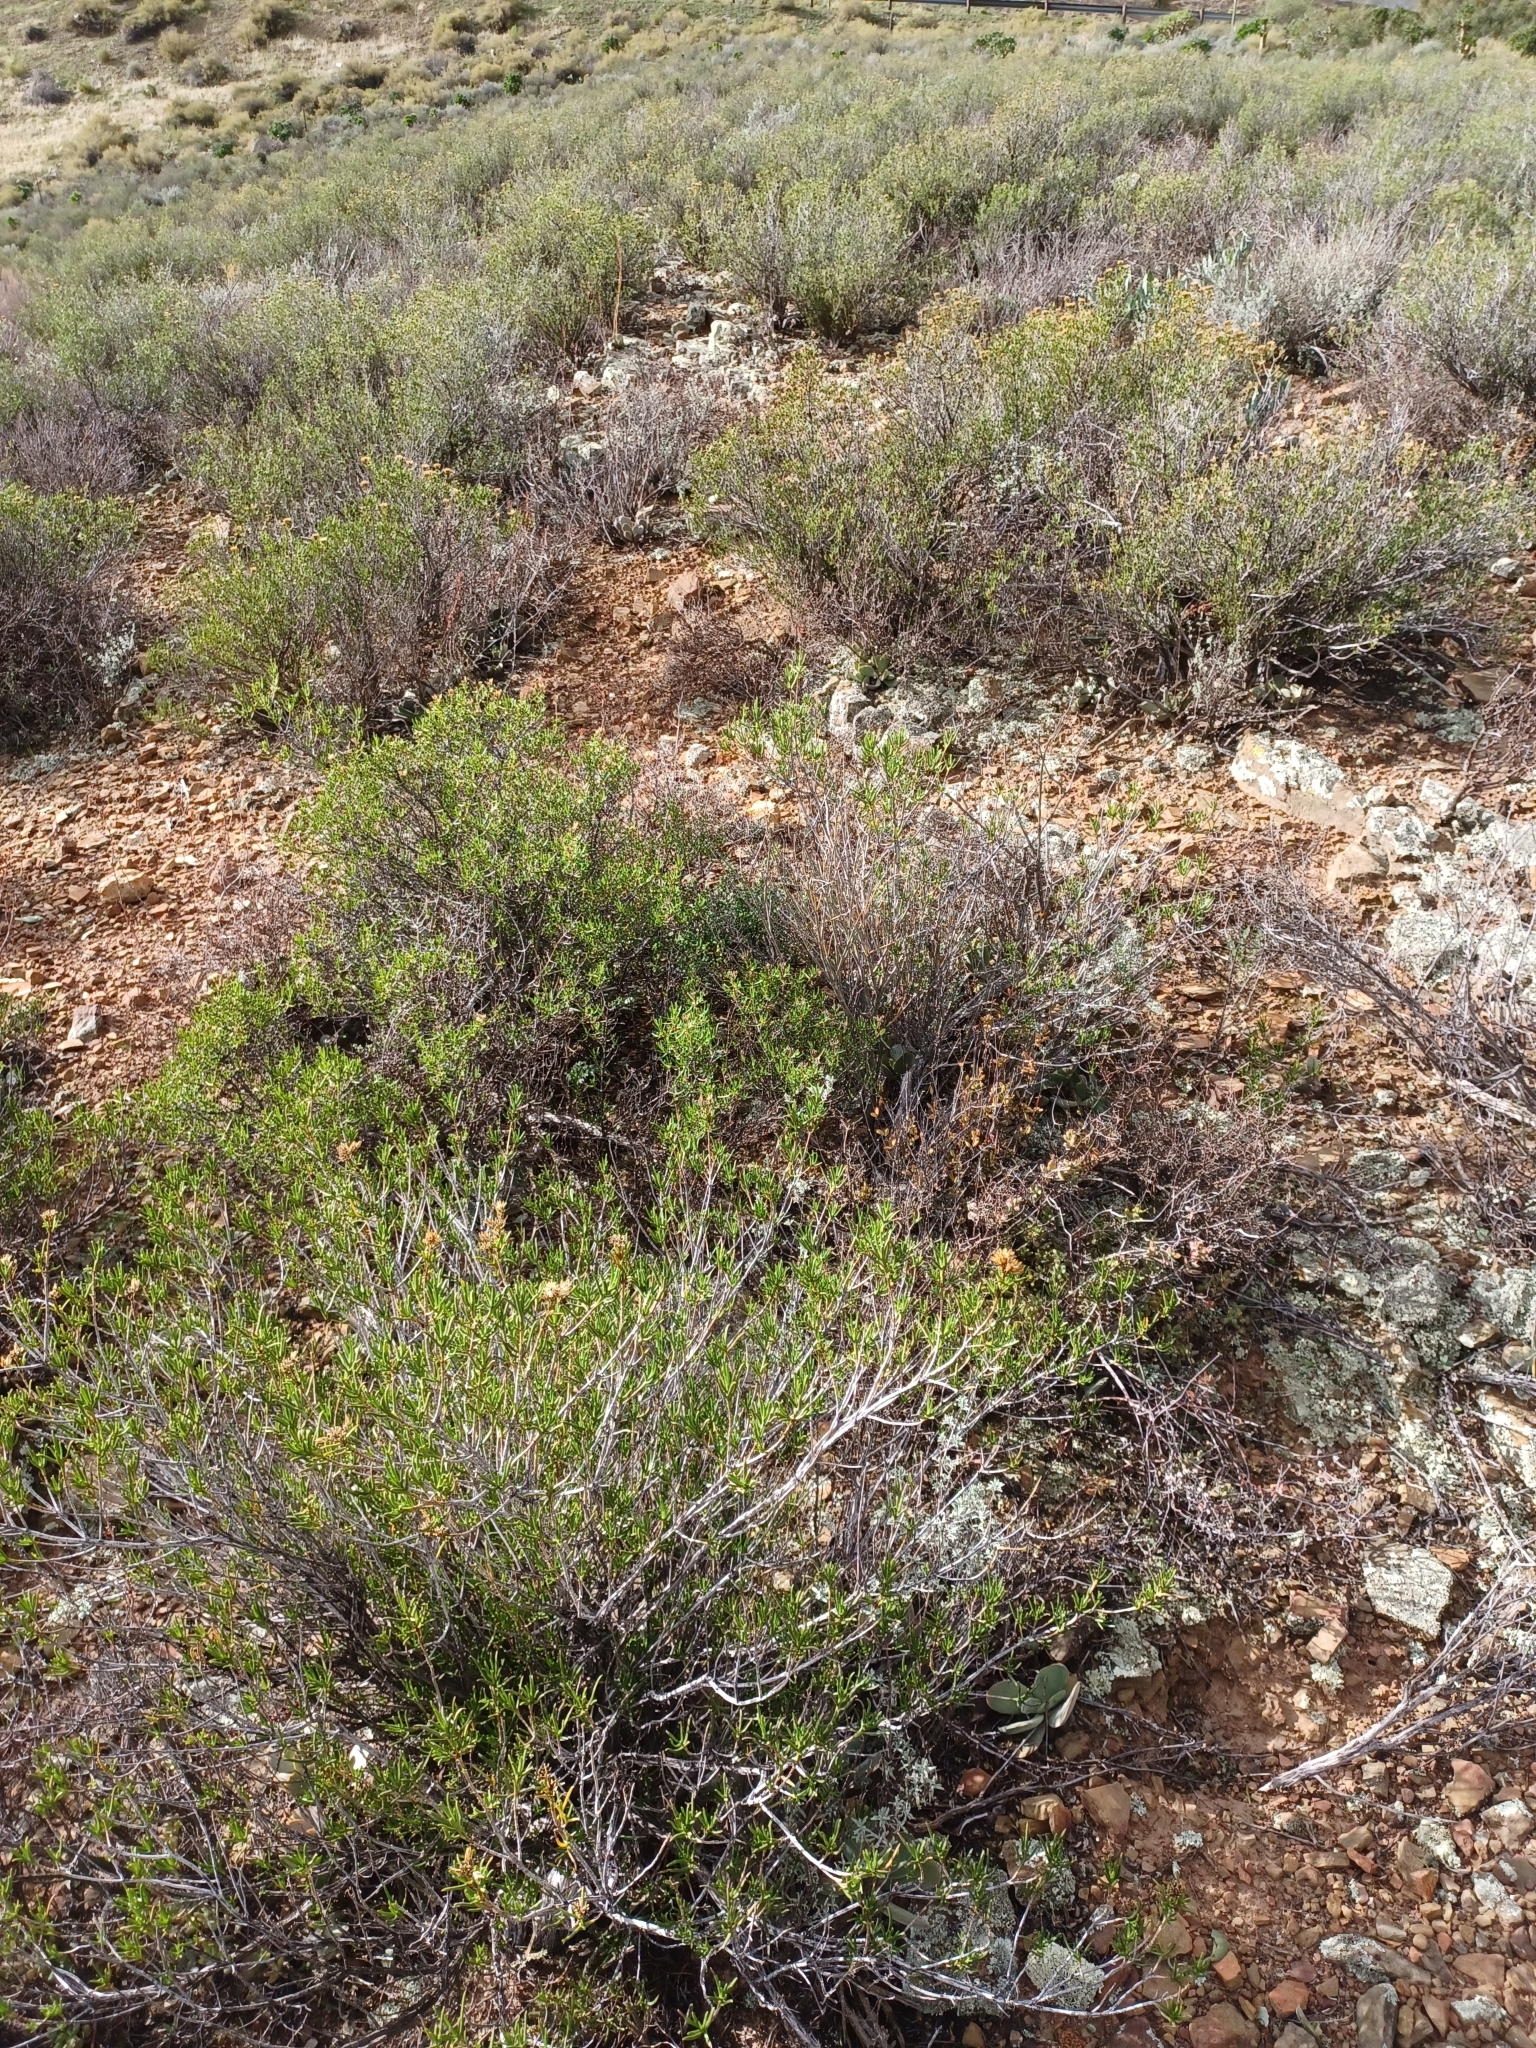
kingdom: Plantae
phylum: Tracheophyta
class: Magnoliopsida
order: Asterales
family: Asteraceae
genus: Pteronia
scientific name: Pteronia paniculata
